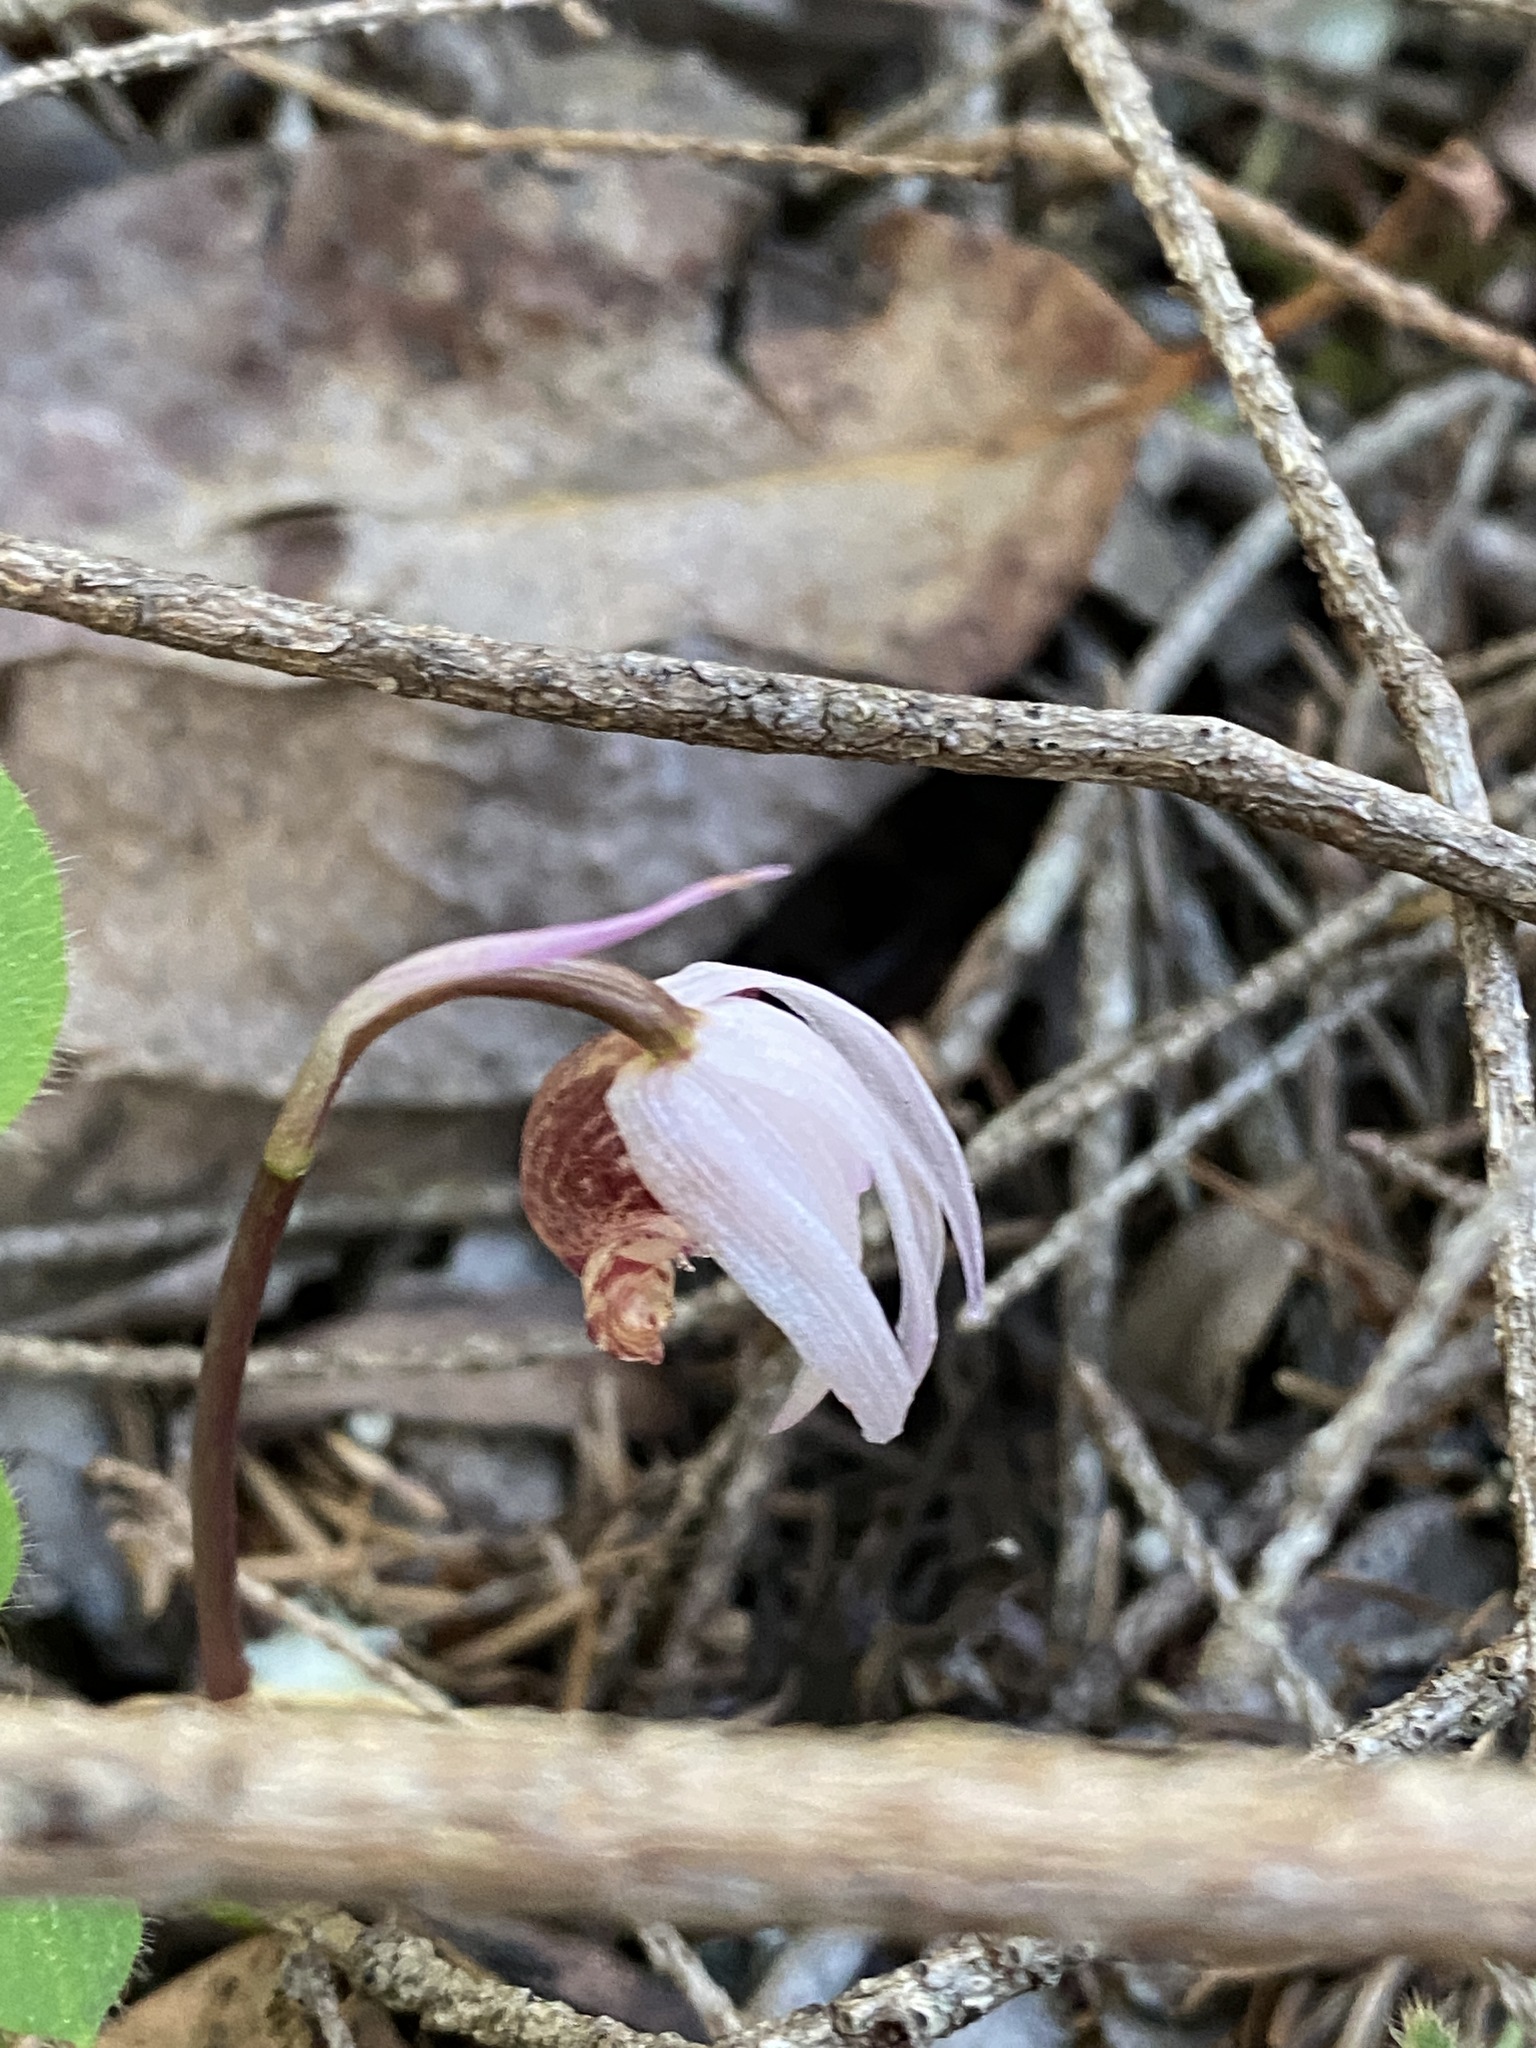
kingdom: Plantae
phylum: Tracheophyta
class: Liliopsida
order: Asparagales
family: Orchidaceae
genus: Calypso
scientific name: Calypso bulbosa
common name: Calypso
